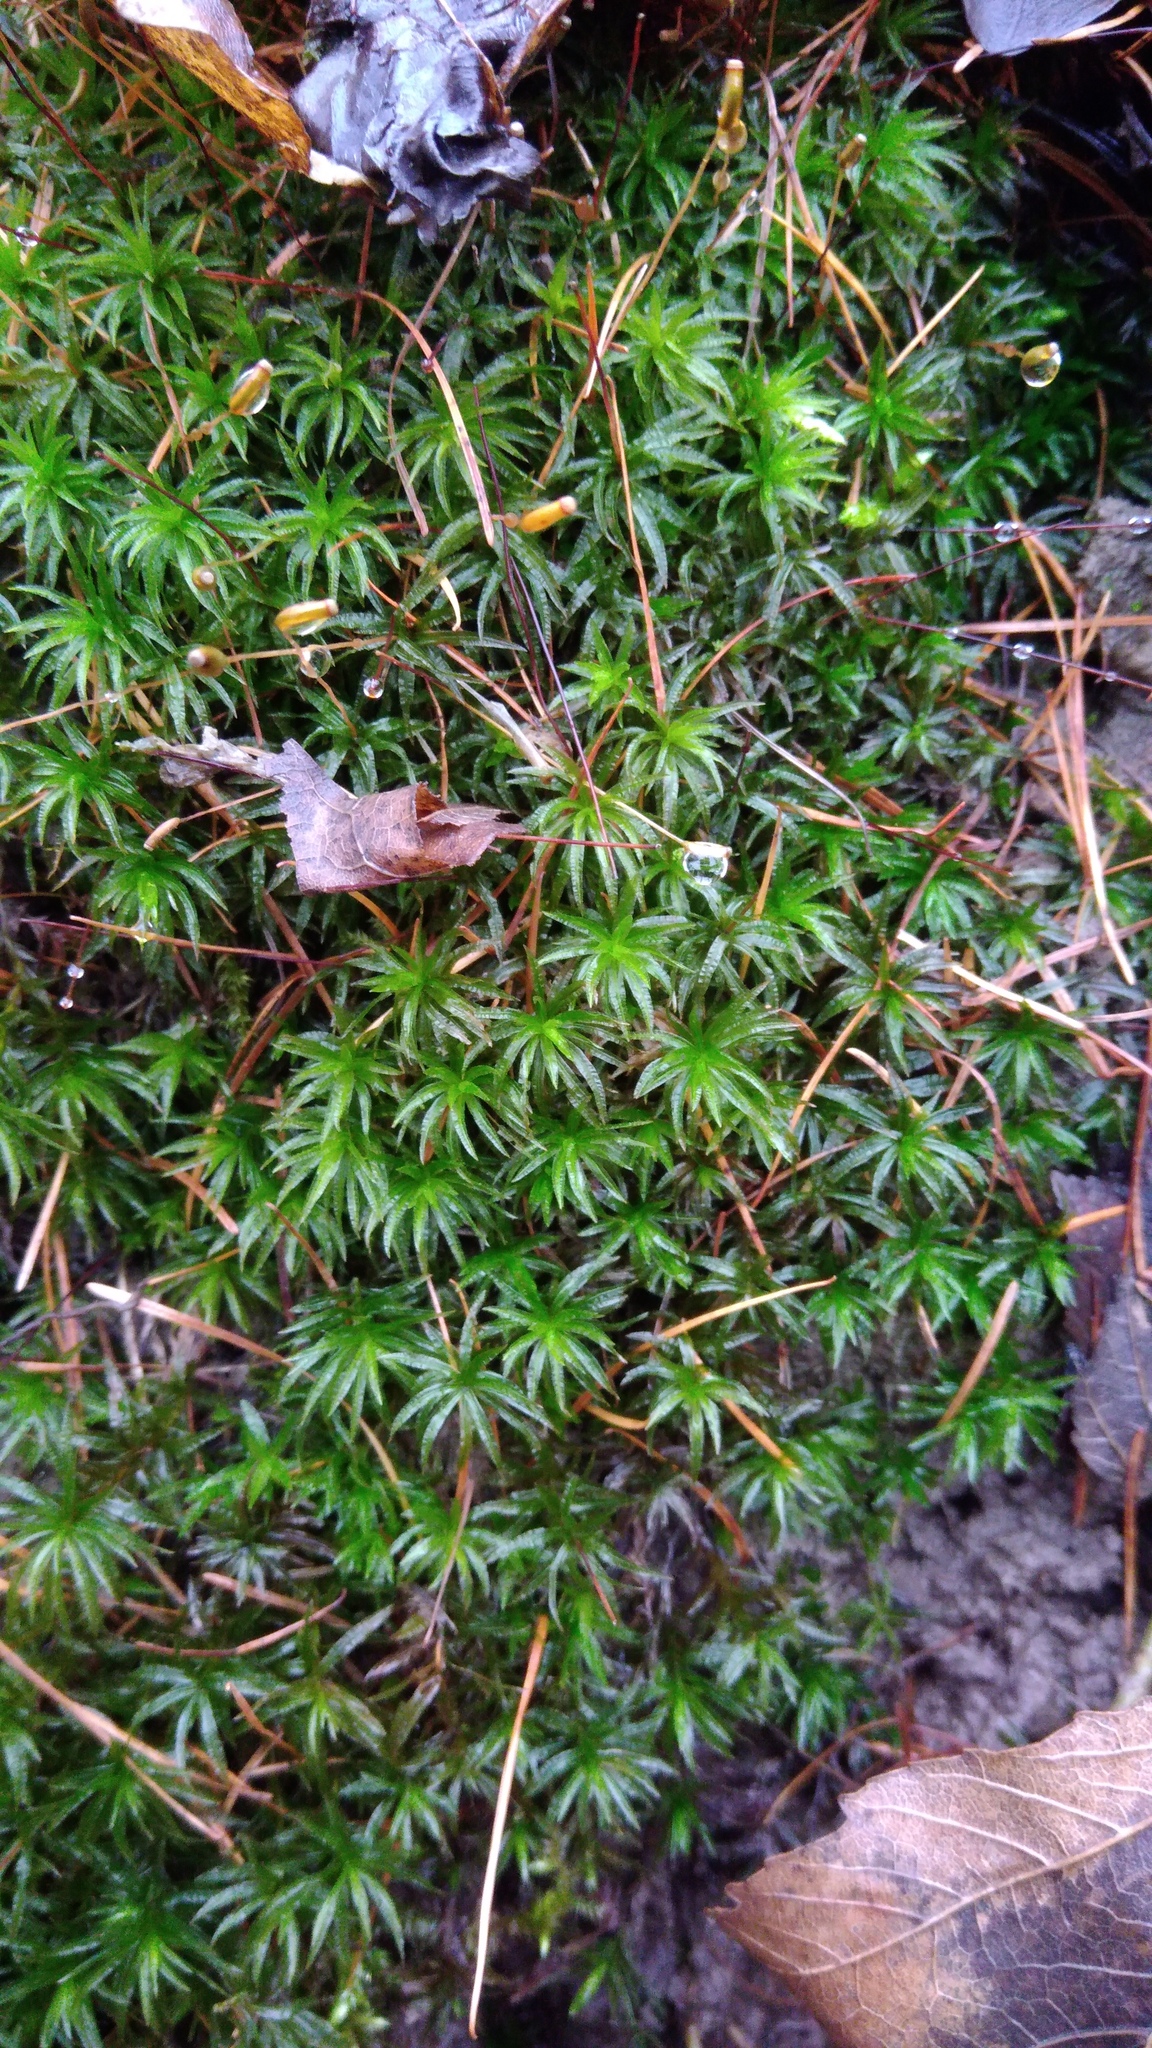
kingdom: Plantae
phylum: Bryophyta
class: Polytrichopsida
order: Polytrichales
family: Polytrichaceae
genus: Atrichum
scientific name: Atrichum undulatum
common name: Common smoothcap
